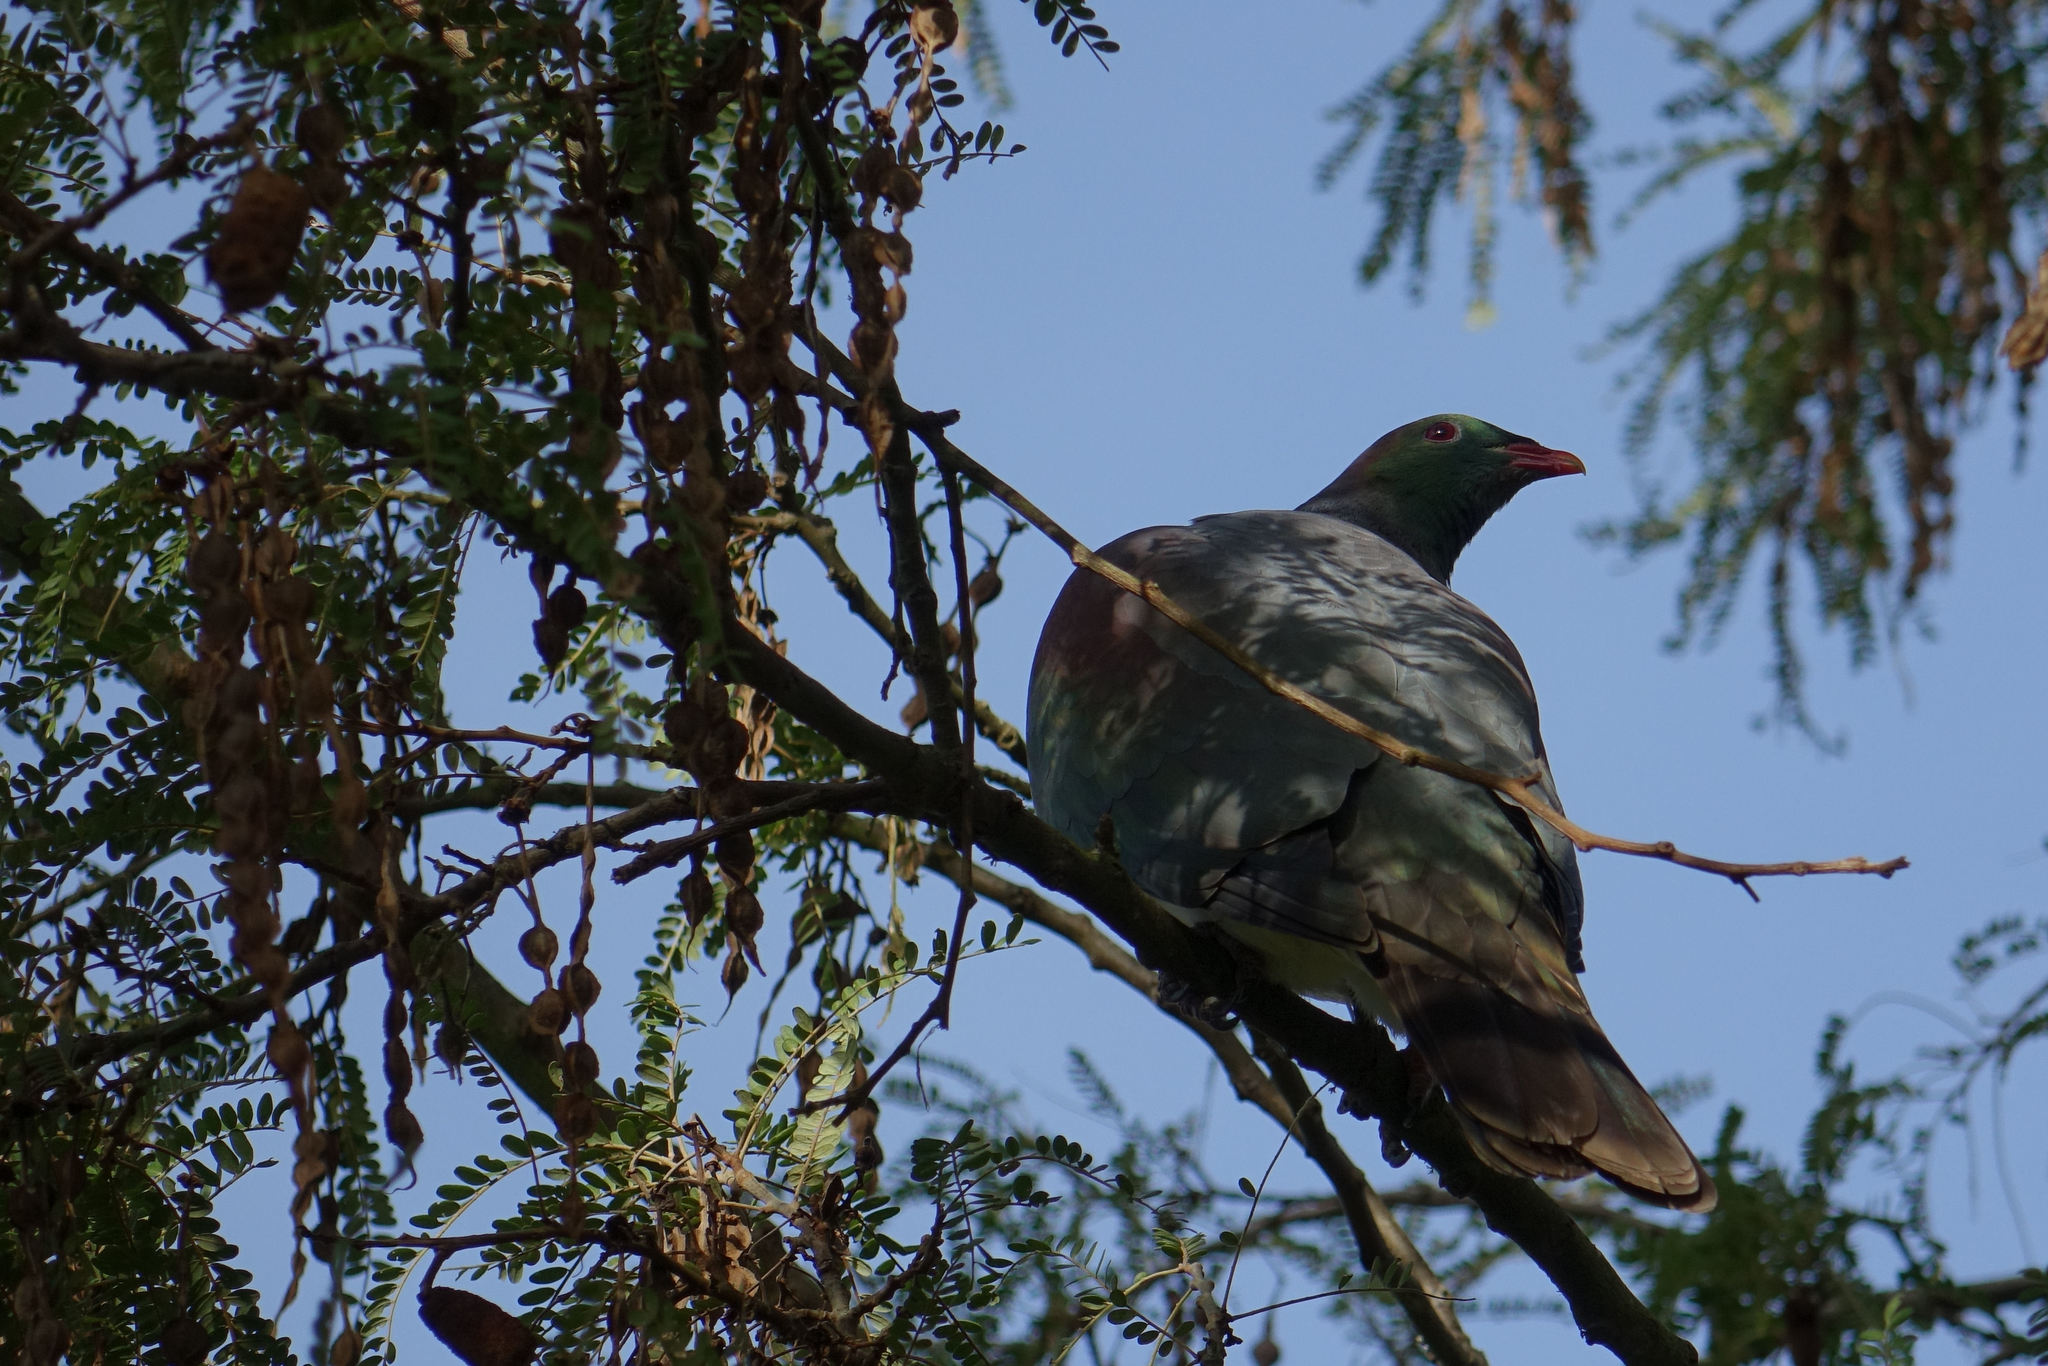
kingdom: Animalia
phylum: Chordata
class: Aves
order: Columbiformes
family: Columbidae
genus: Hemiphaga
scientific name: Hemiphaga novaeseelandiae
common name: New zealand pigeon
